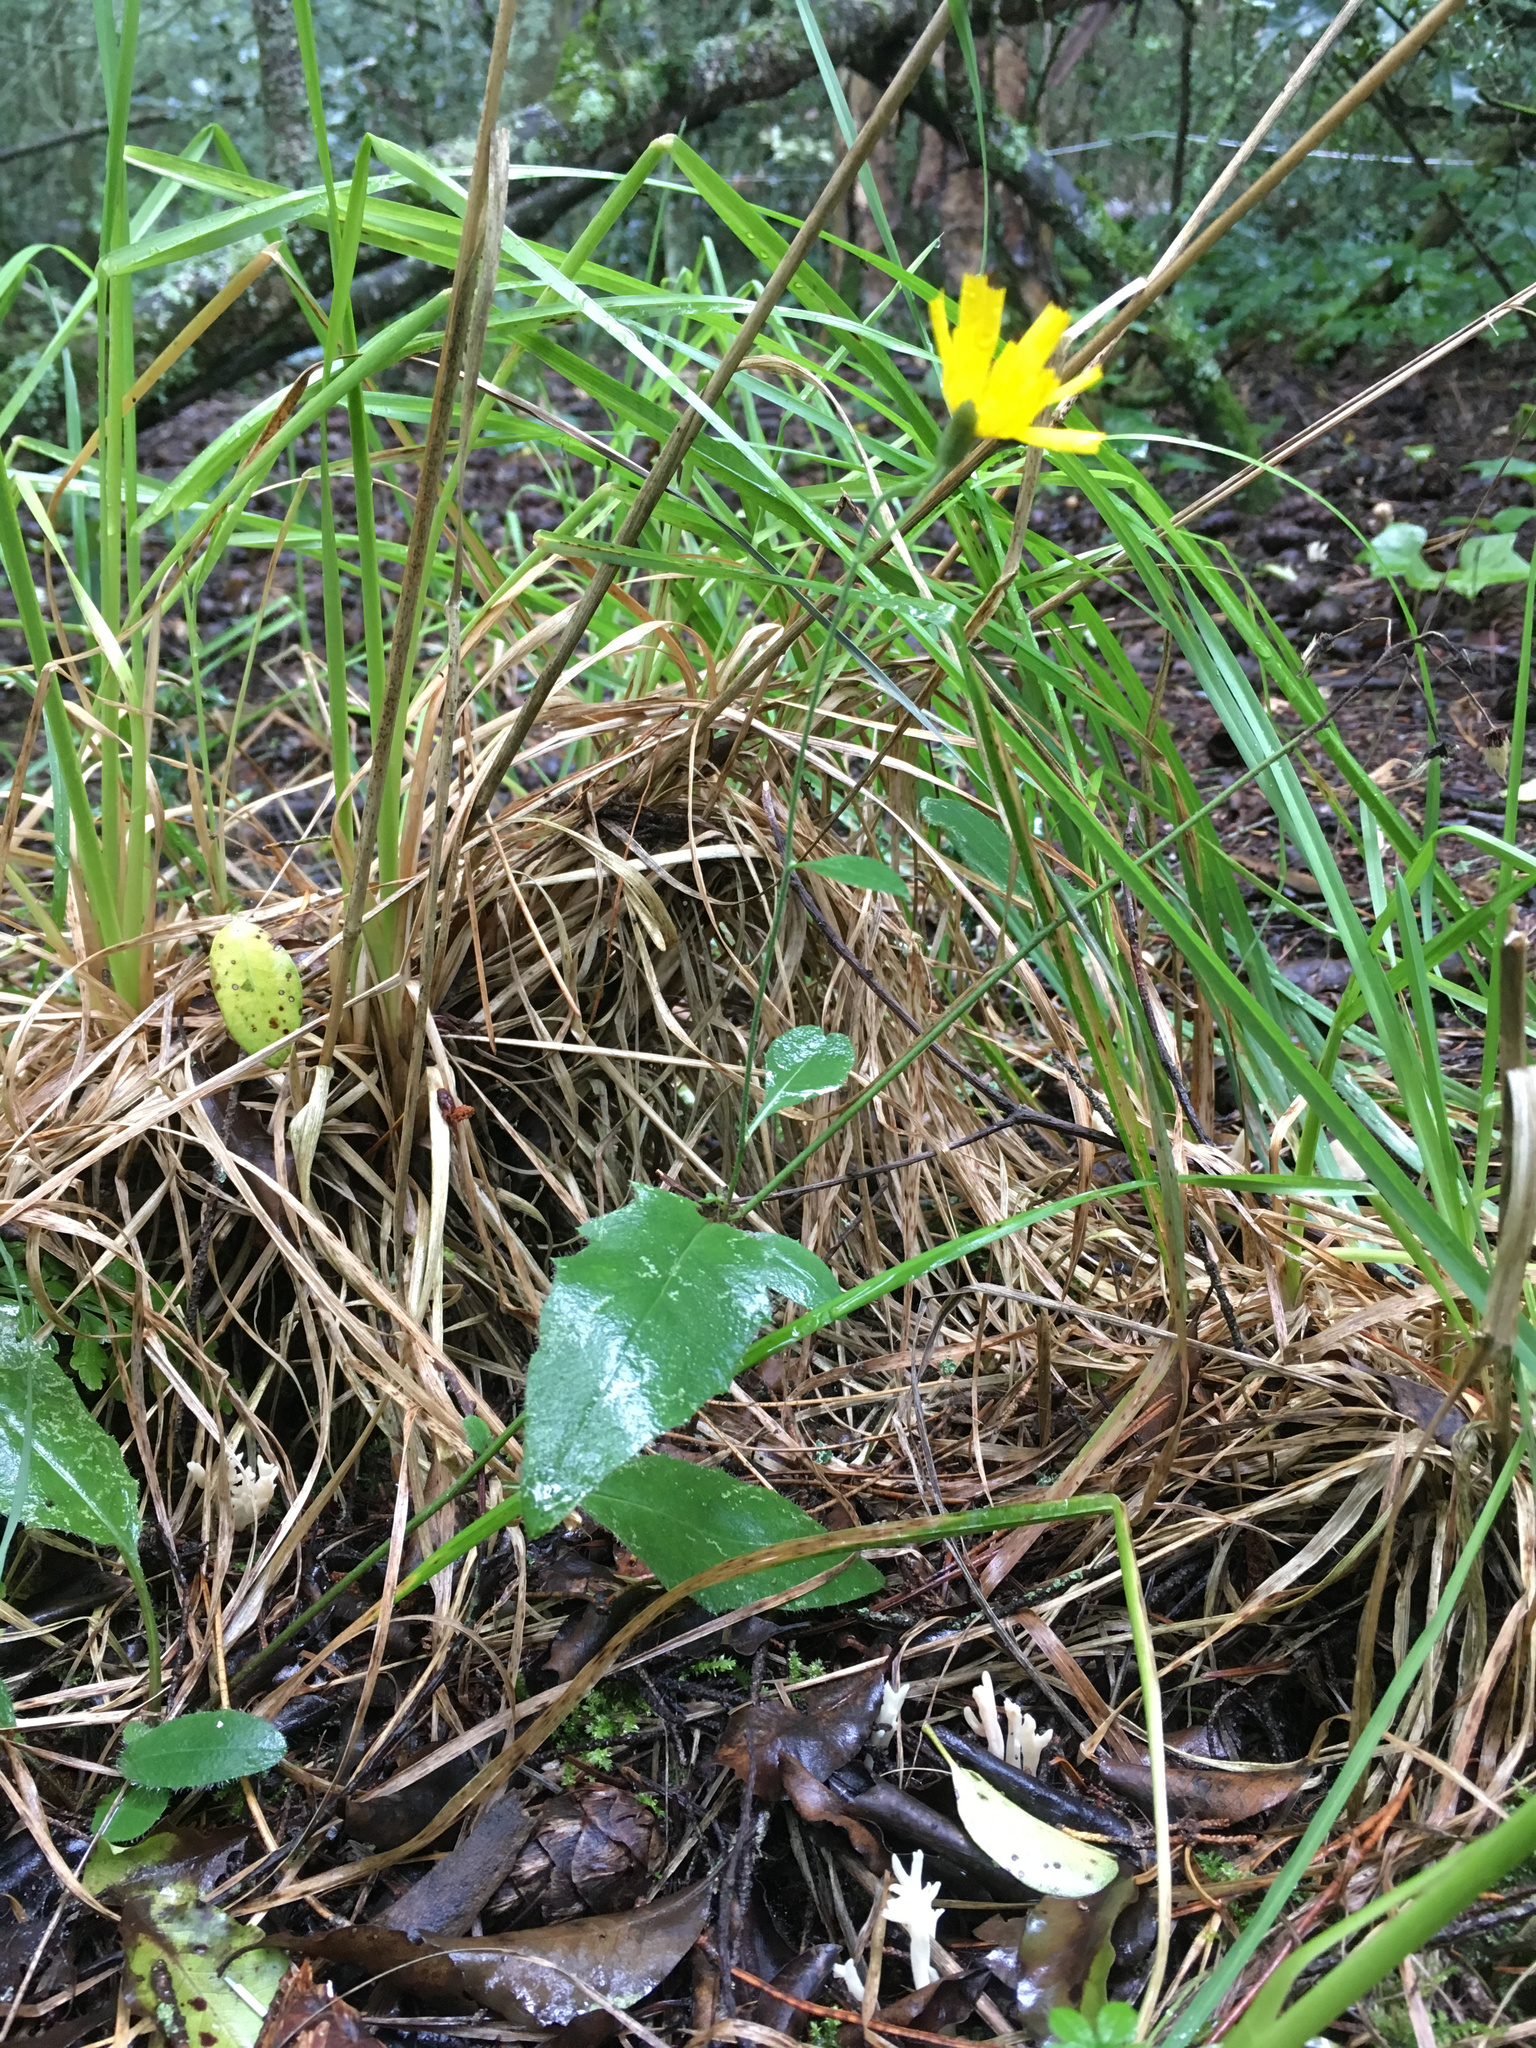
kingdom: Plantae
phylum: Tracheophyta
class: Magnoliopsida
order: Asterales
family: Asteraceae
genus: Hieracium
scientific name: Hieracium lepidulum
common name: Irregular-toothed hawkweed
